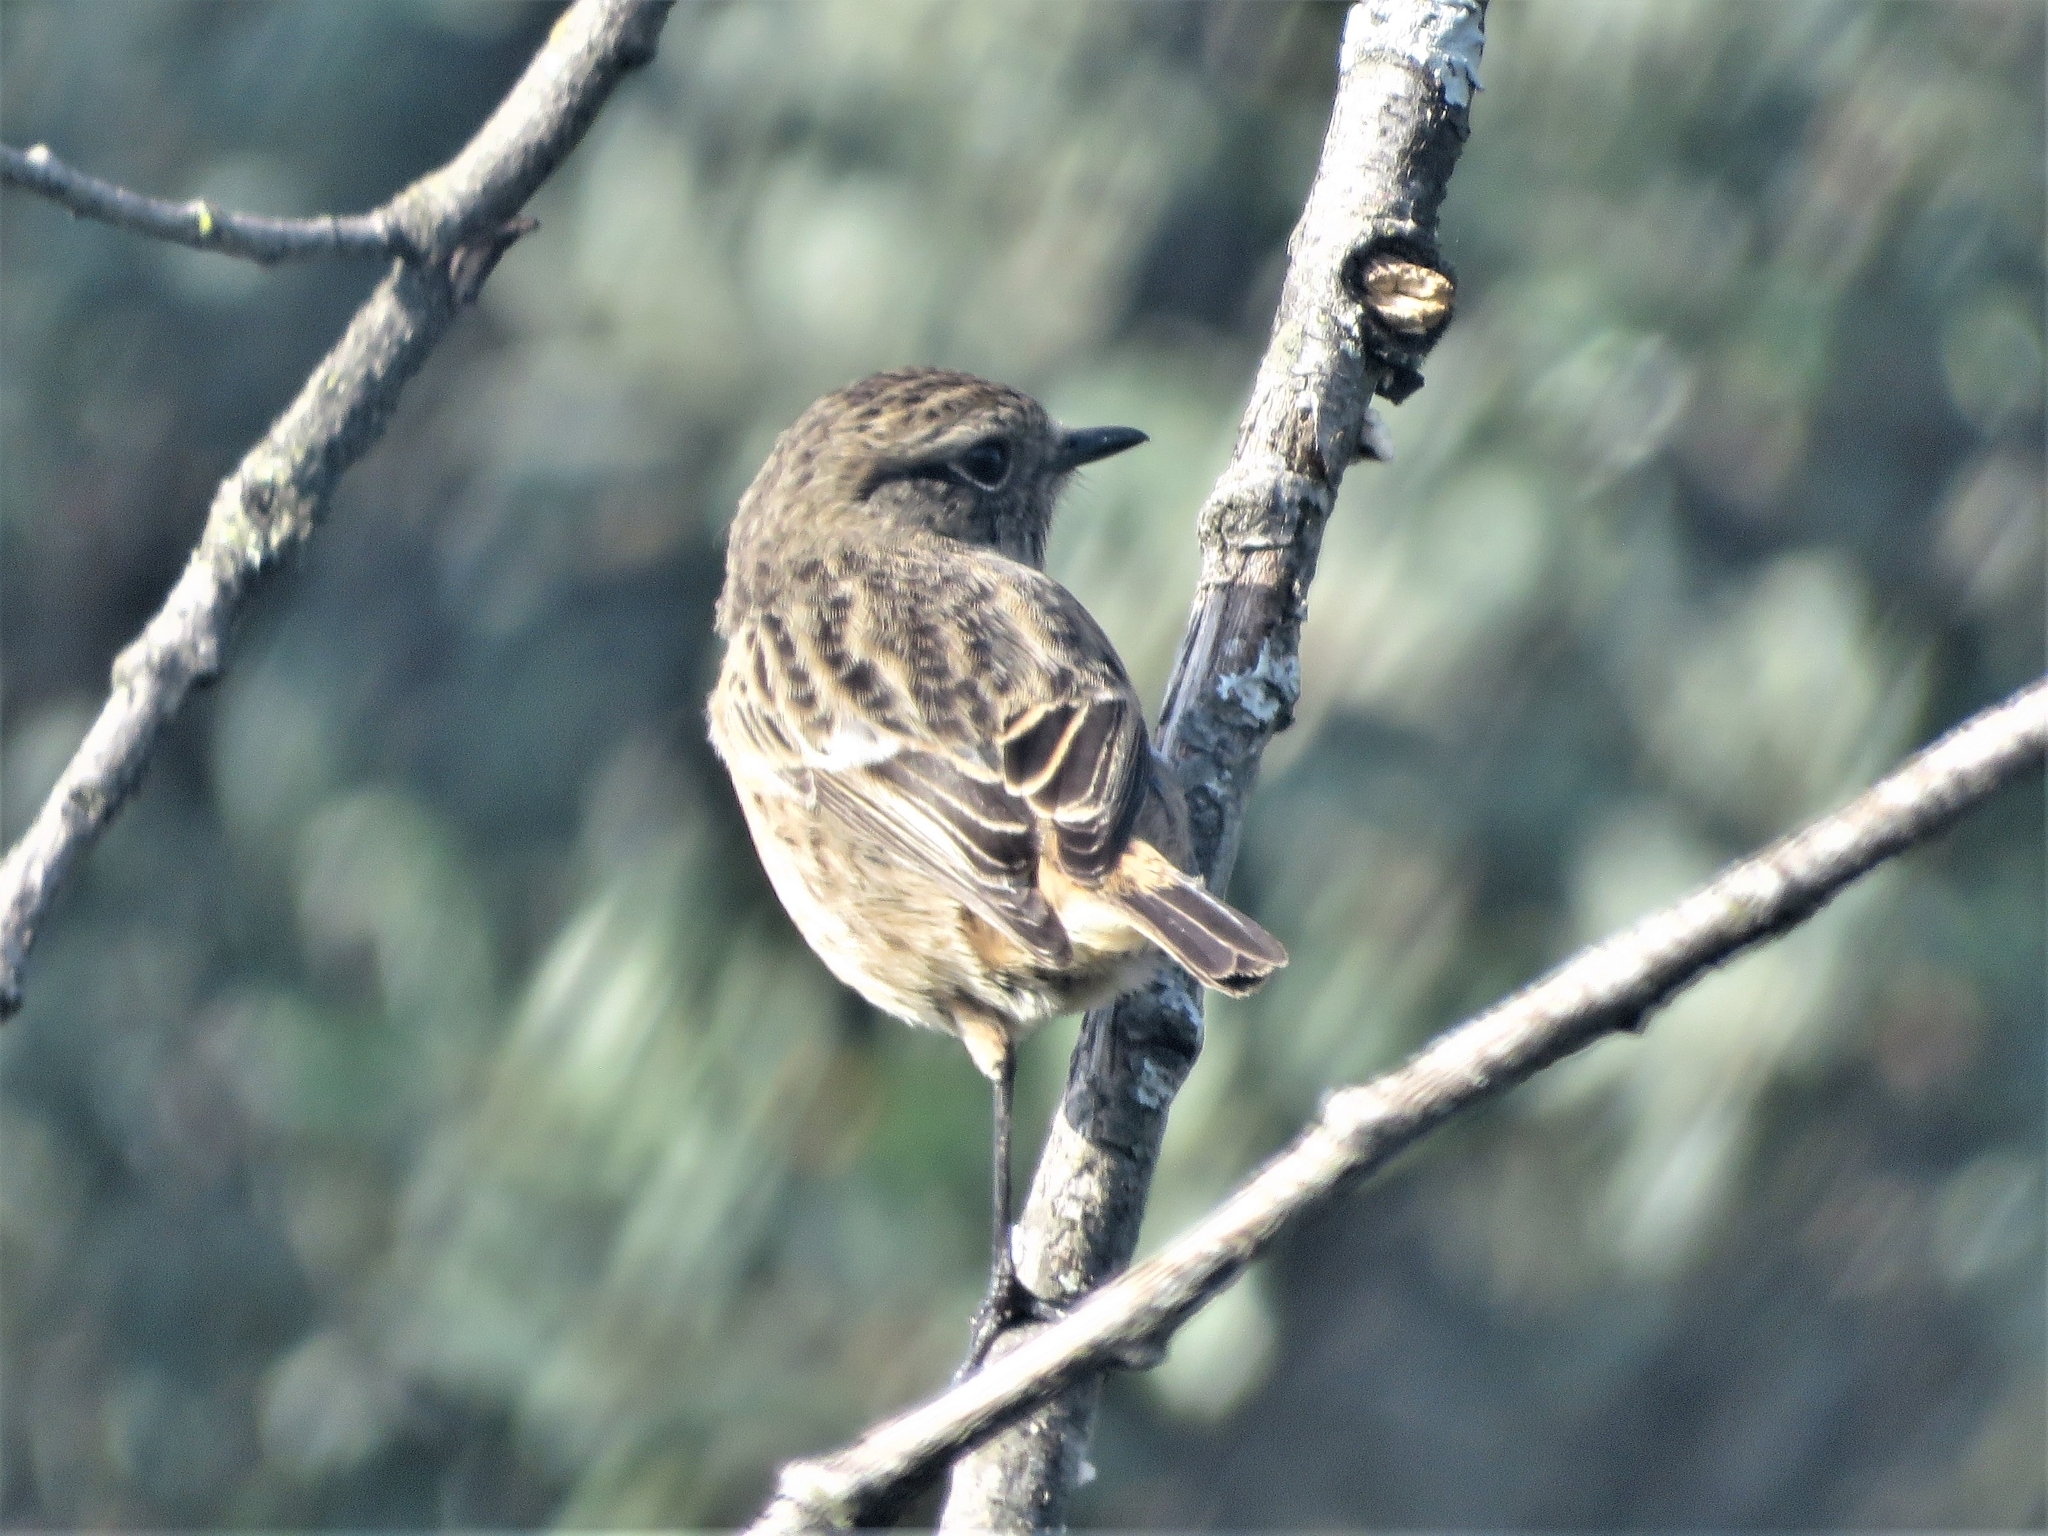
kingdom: Animalia
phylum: Chordata
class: Aves
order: Passeriformes
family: Muscicapidae
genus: Saxicola
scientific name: Saxicola rubicola
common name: European stonechat
